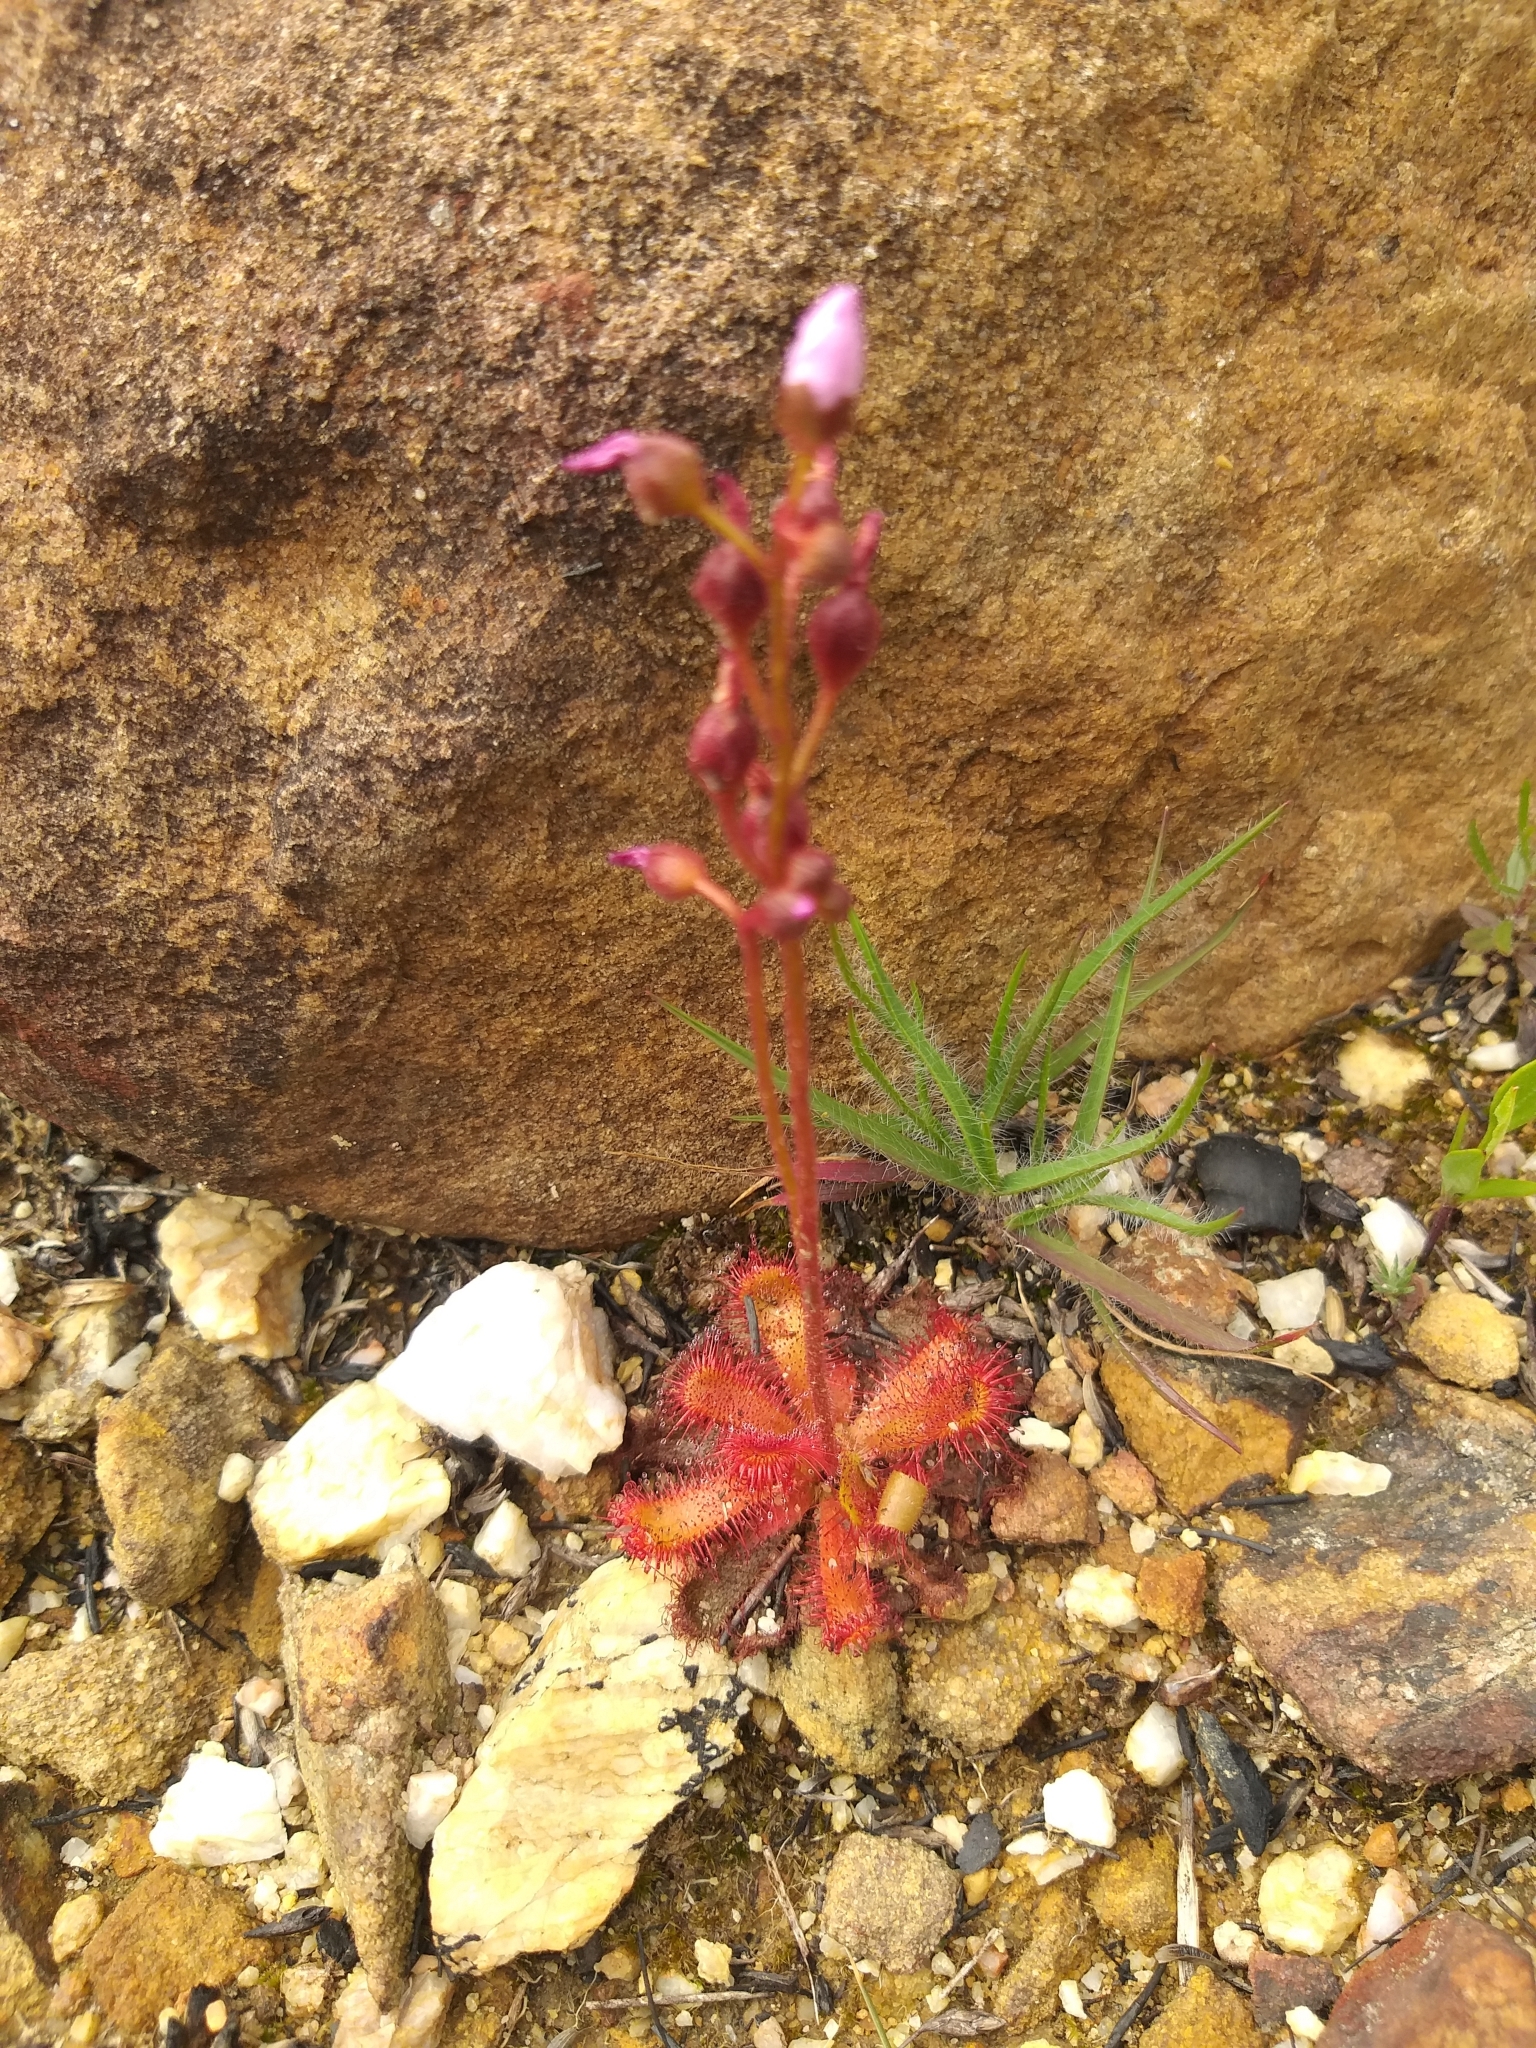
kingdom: Plantae
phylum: Tracheophyta
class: Magnoliopsida
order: Caryophyllales
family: Droseraceae
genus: Drosera
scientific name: Drosera trinervia
